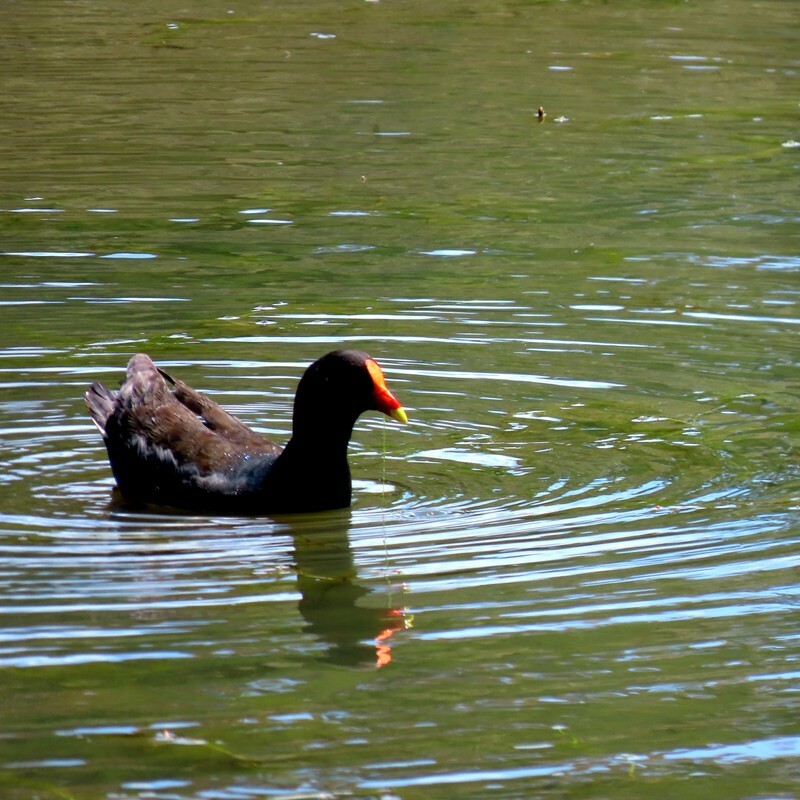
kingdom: Animalia
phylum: Chordata
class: Aves
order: Gruiformes
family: Rallidae
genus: Gallinula
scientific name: Gallinula tenebrosa
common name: Dusky moorhen
